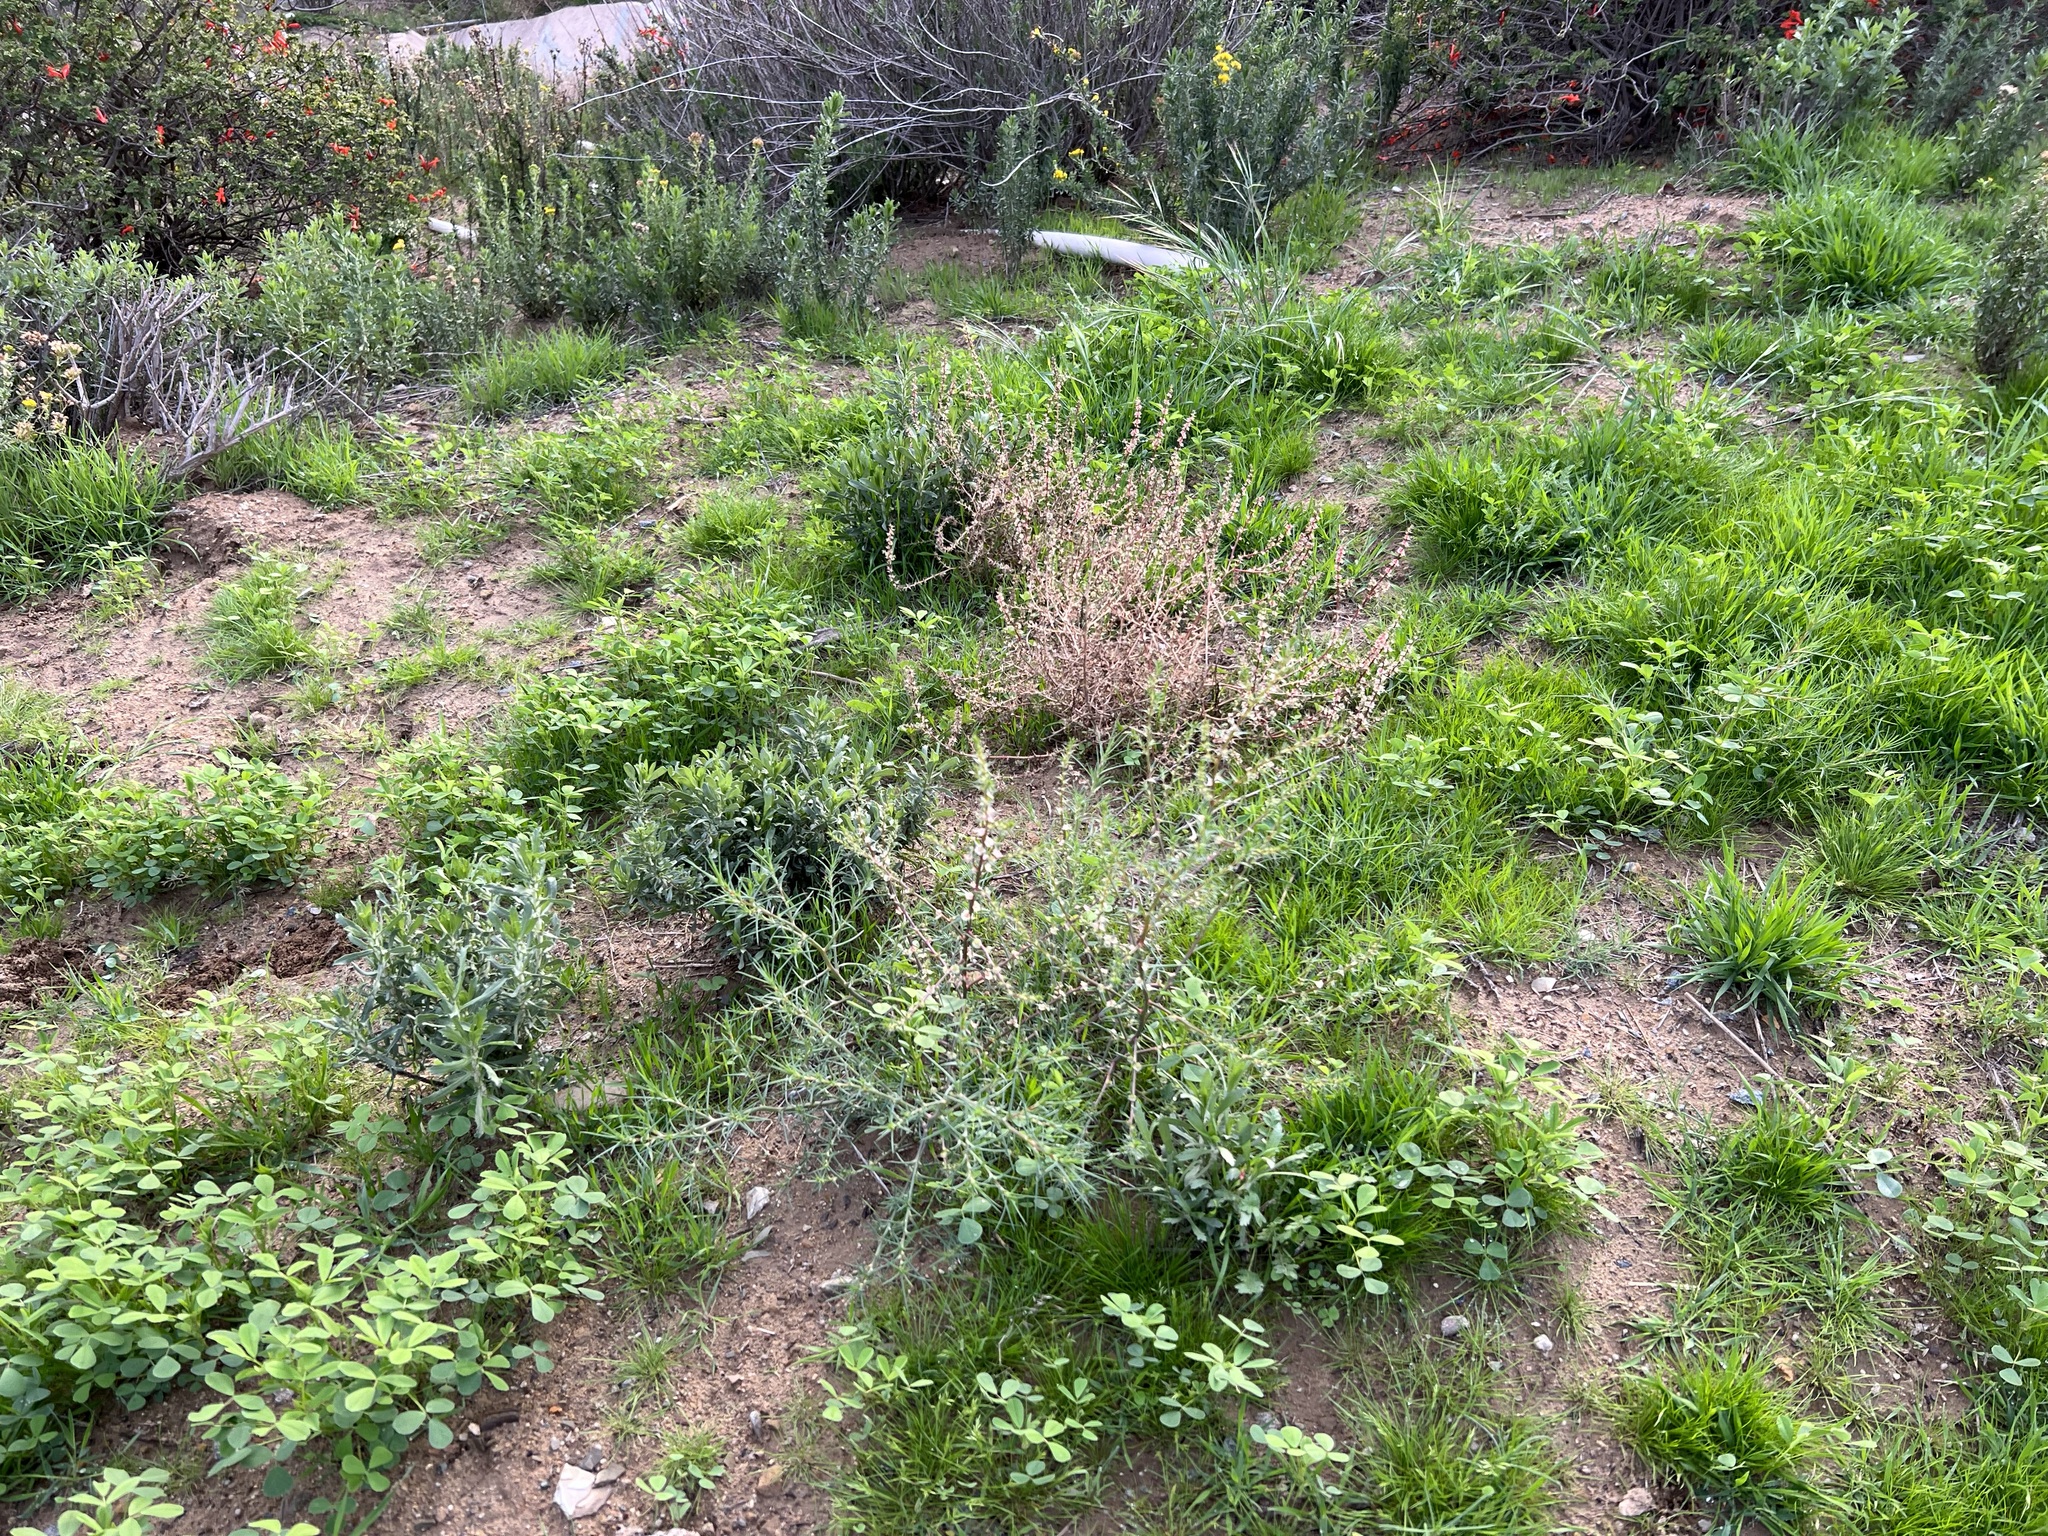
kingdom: Plantae
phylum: Tracheophyta
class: Magnoliopsida
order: Caryophyllales
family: Amaranthaceae
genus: Salsola
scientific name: Salsola australis
